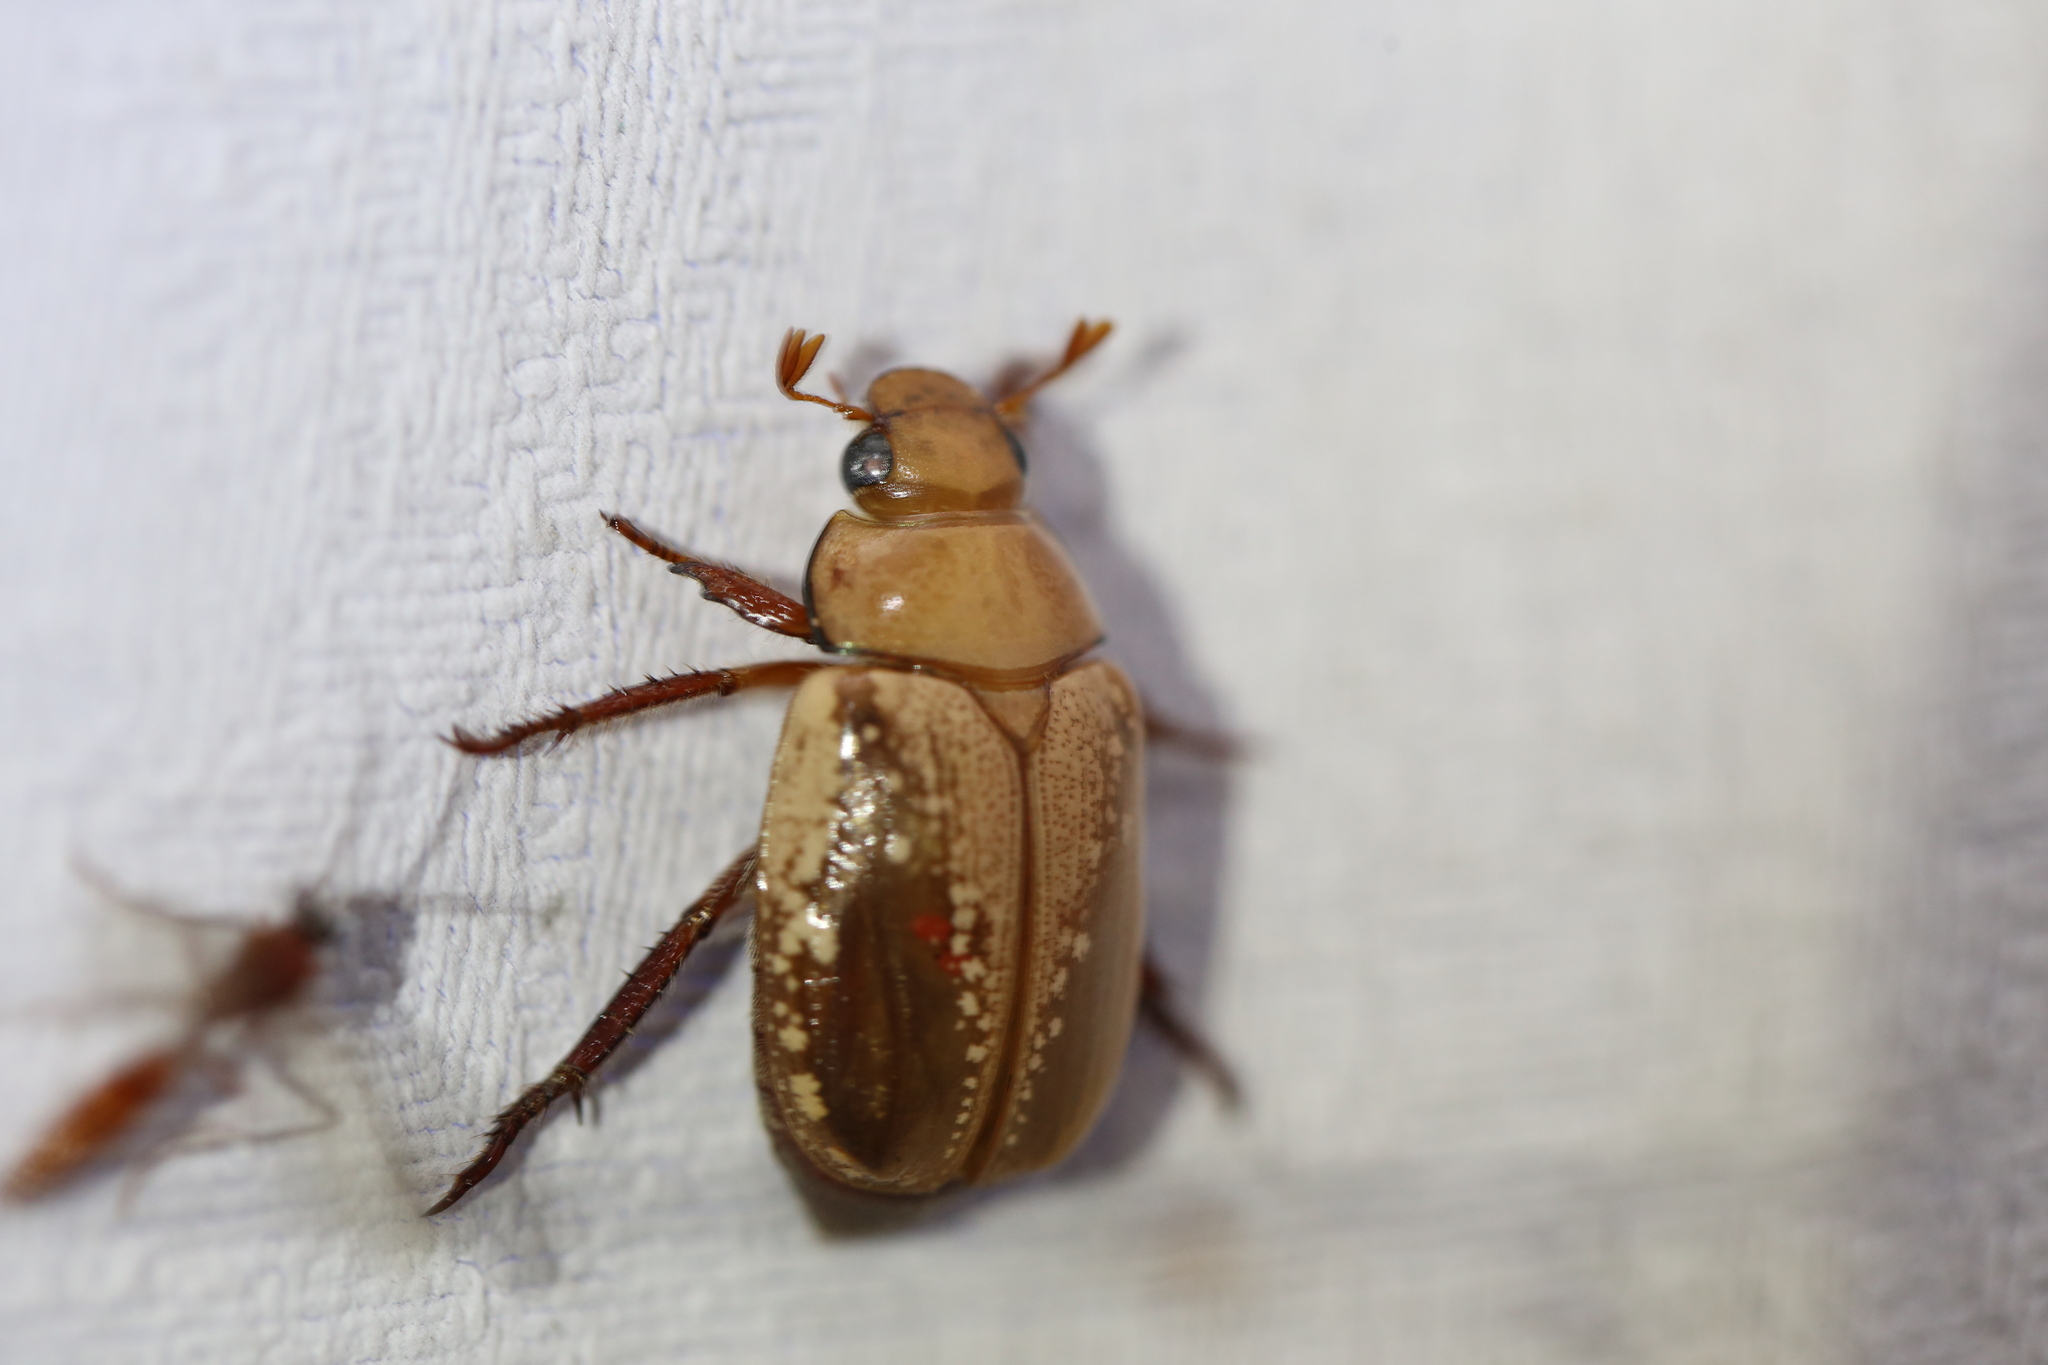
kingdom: Animalia
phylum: Arthropoda
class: Insecta
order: Coleoptera
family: Scarabaeidae
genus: Anoplognathus
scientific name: Anoplognathus concolor
